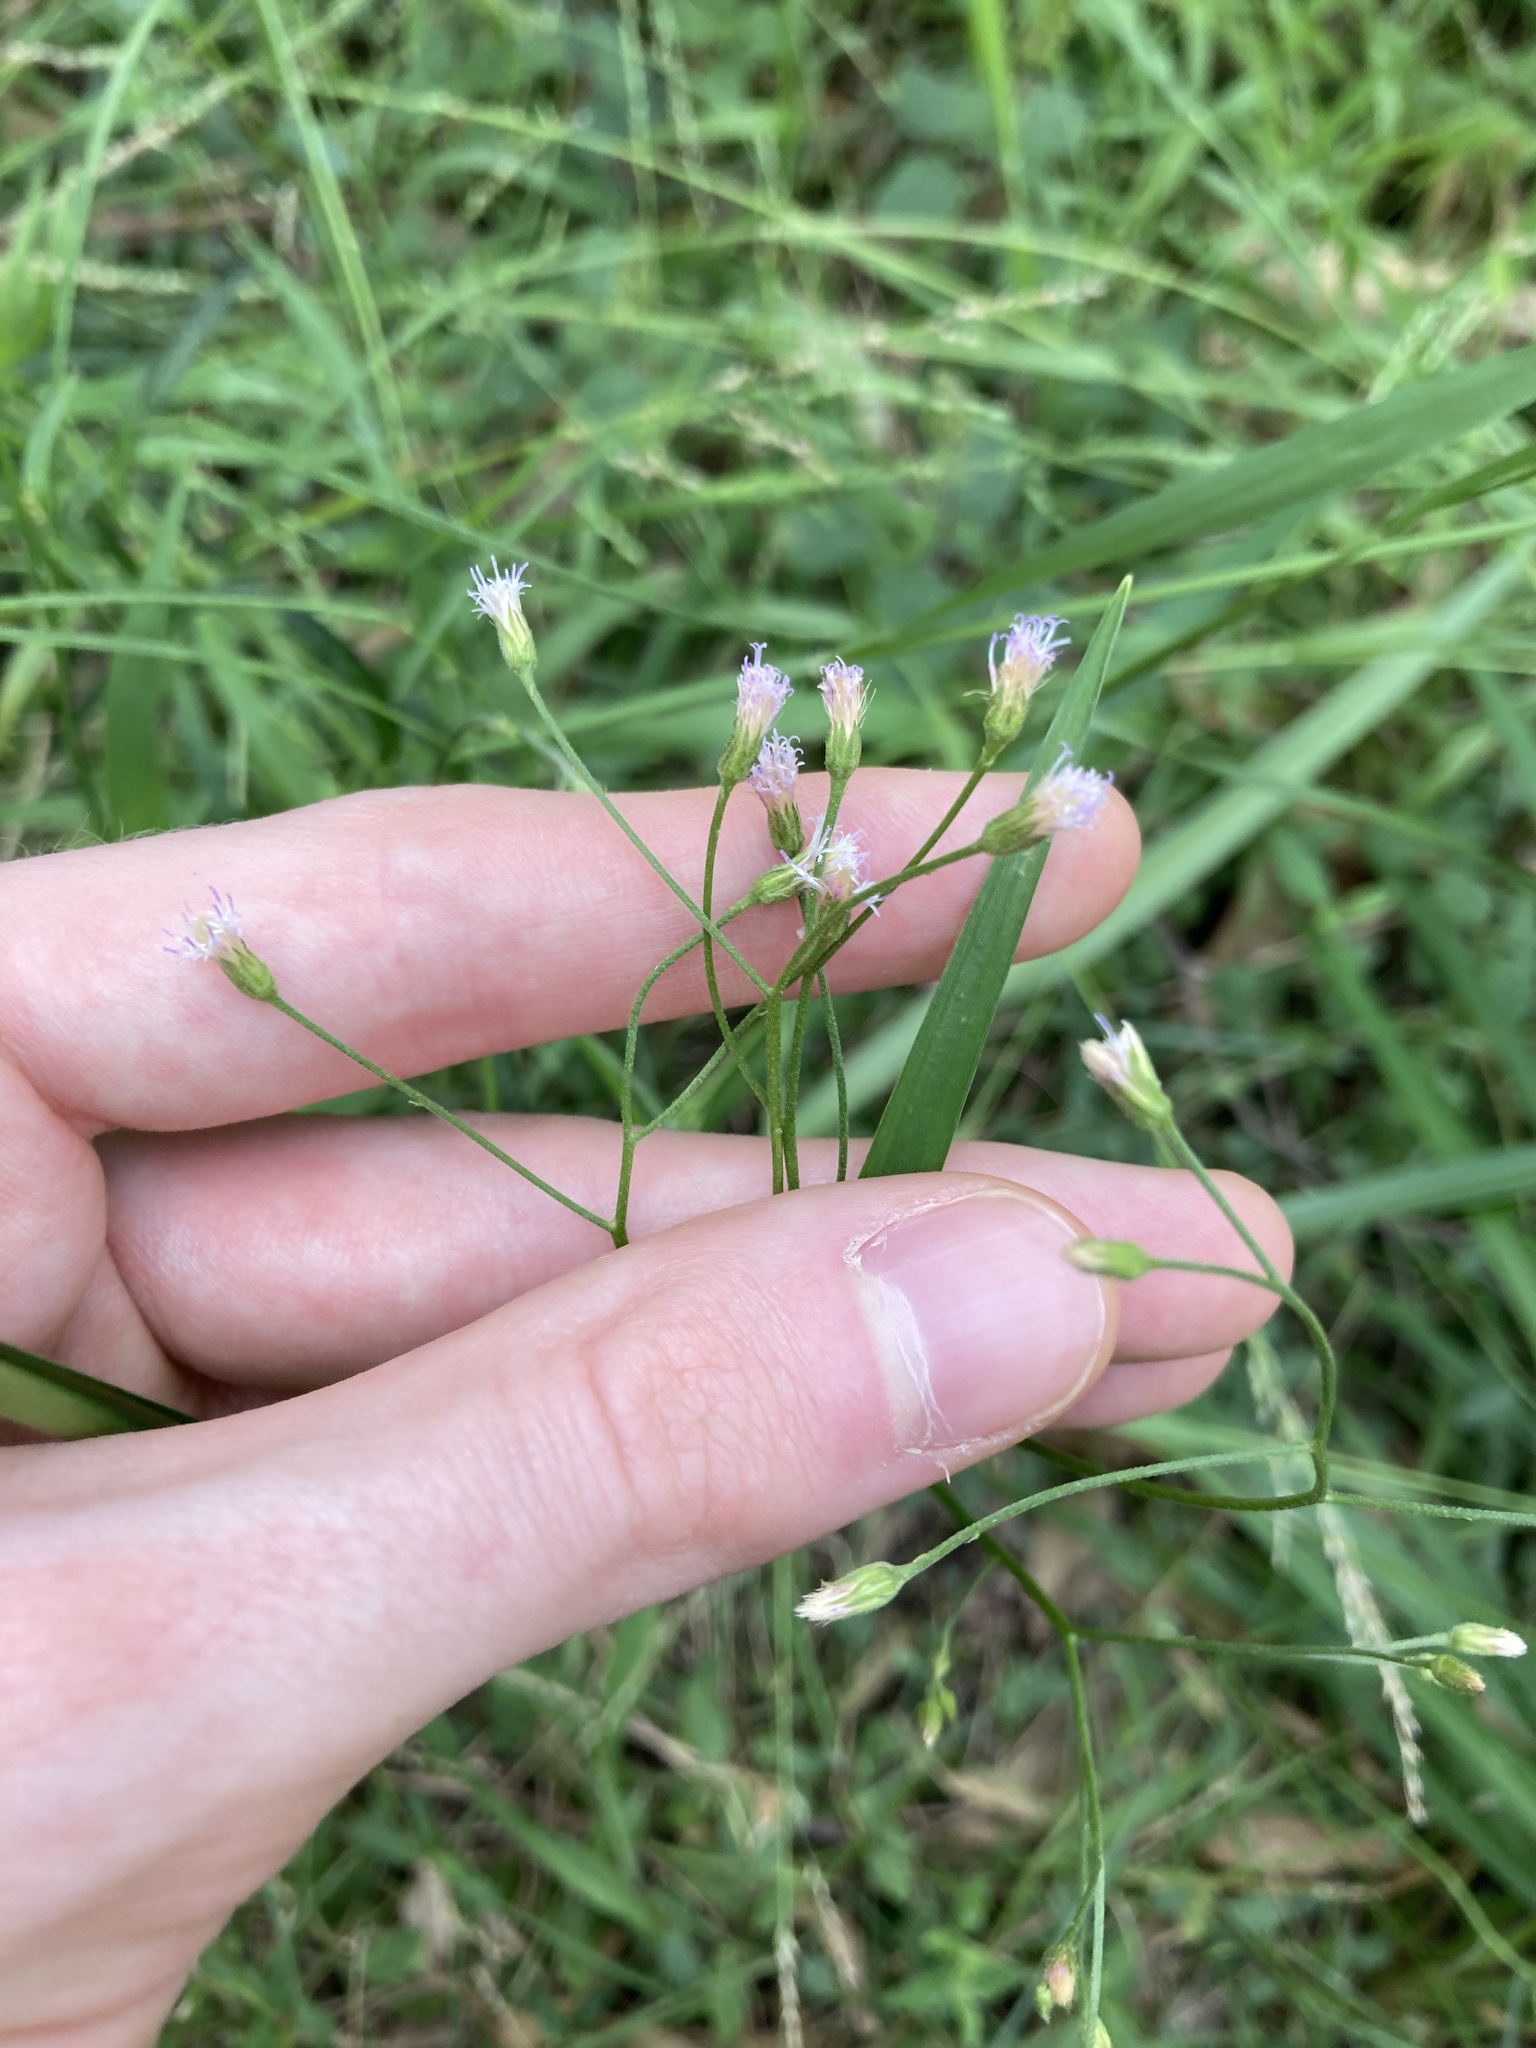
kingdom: Plantae
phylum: Tracheophyta
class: Magnoliopsida
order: Asterales
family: Asteraceae
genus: Cyanthillium
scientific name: Cyanthillium cinereum
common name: Little ironweed
